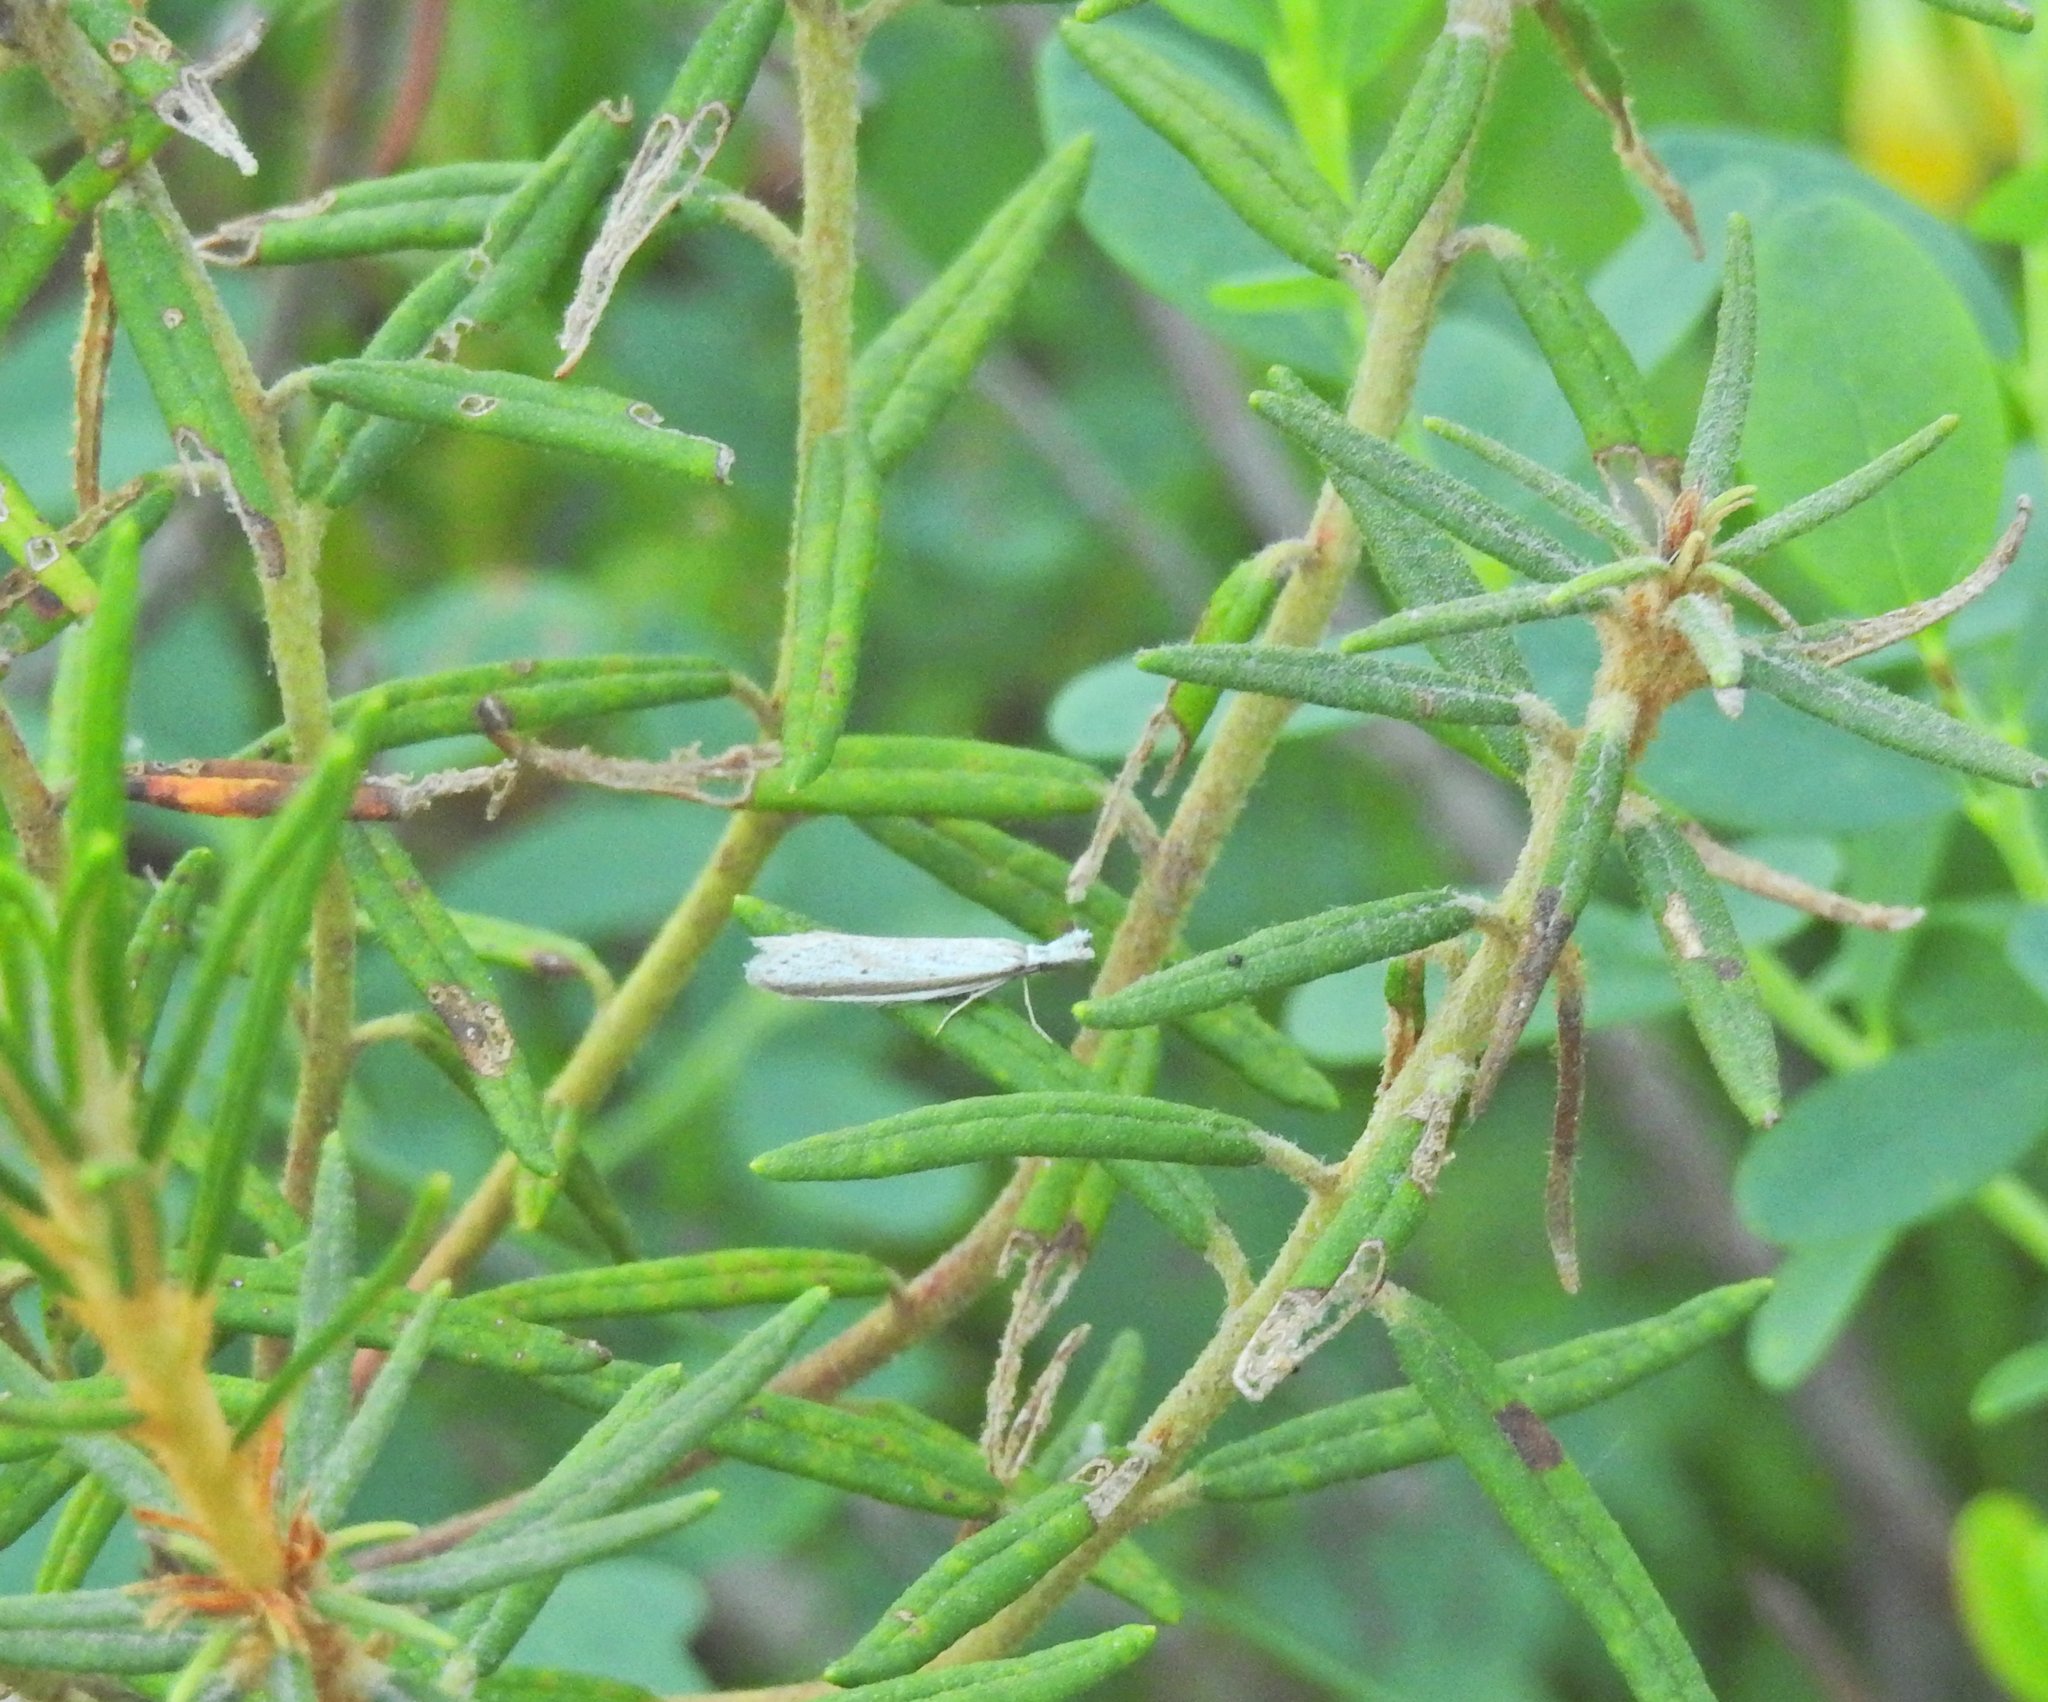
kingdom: Animalia
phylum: Arthropoda
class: Insecta
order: Lepidoptera
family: Oecophoridae
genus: Pleurota
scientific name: Pleurota bicostella
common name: Light streak
